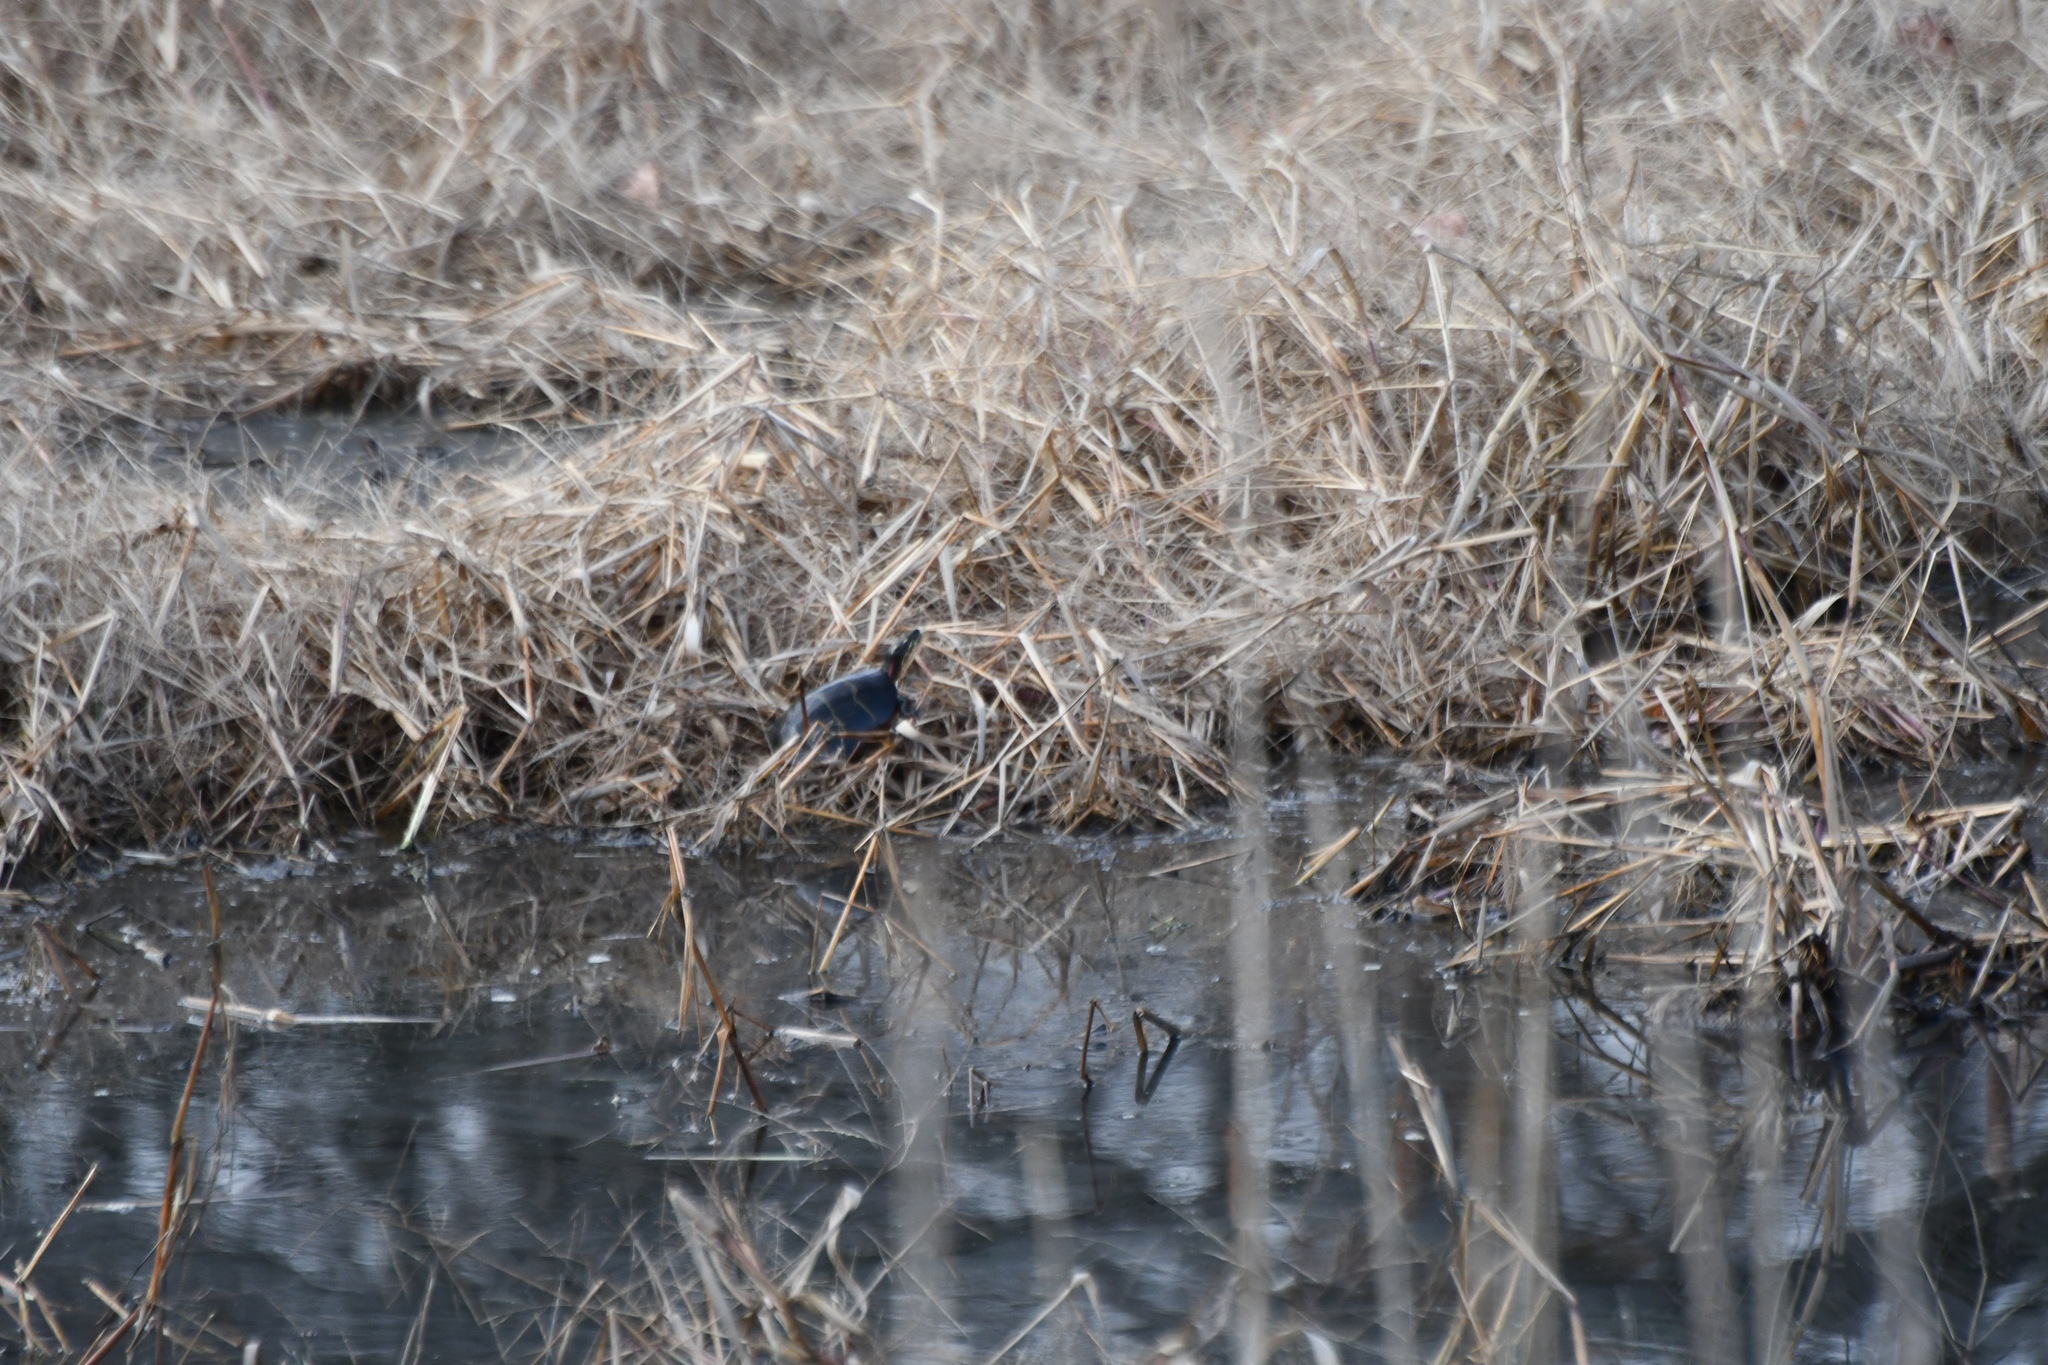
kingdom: Animalia
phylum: Chordata
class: Testudines
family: Emydidae
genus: Chrysemys
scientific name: Chrysemys picta
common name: Painted turtle
